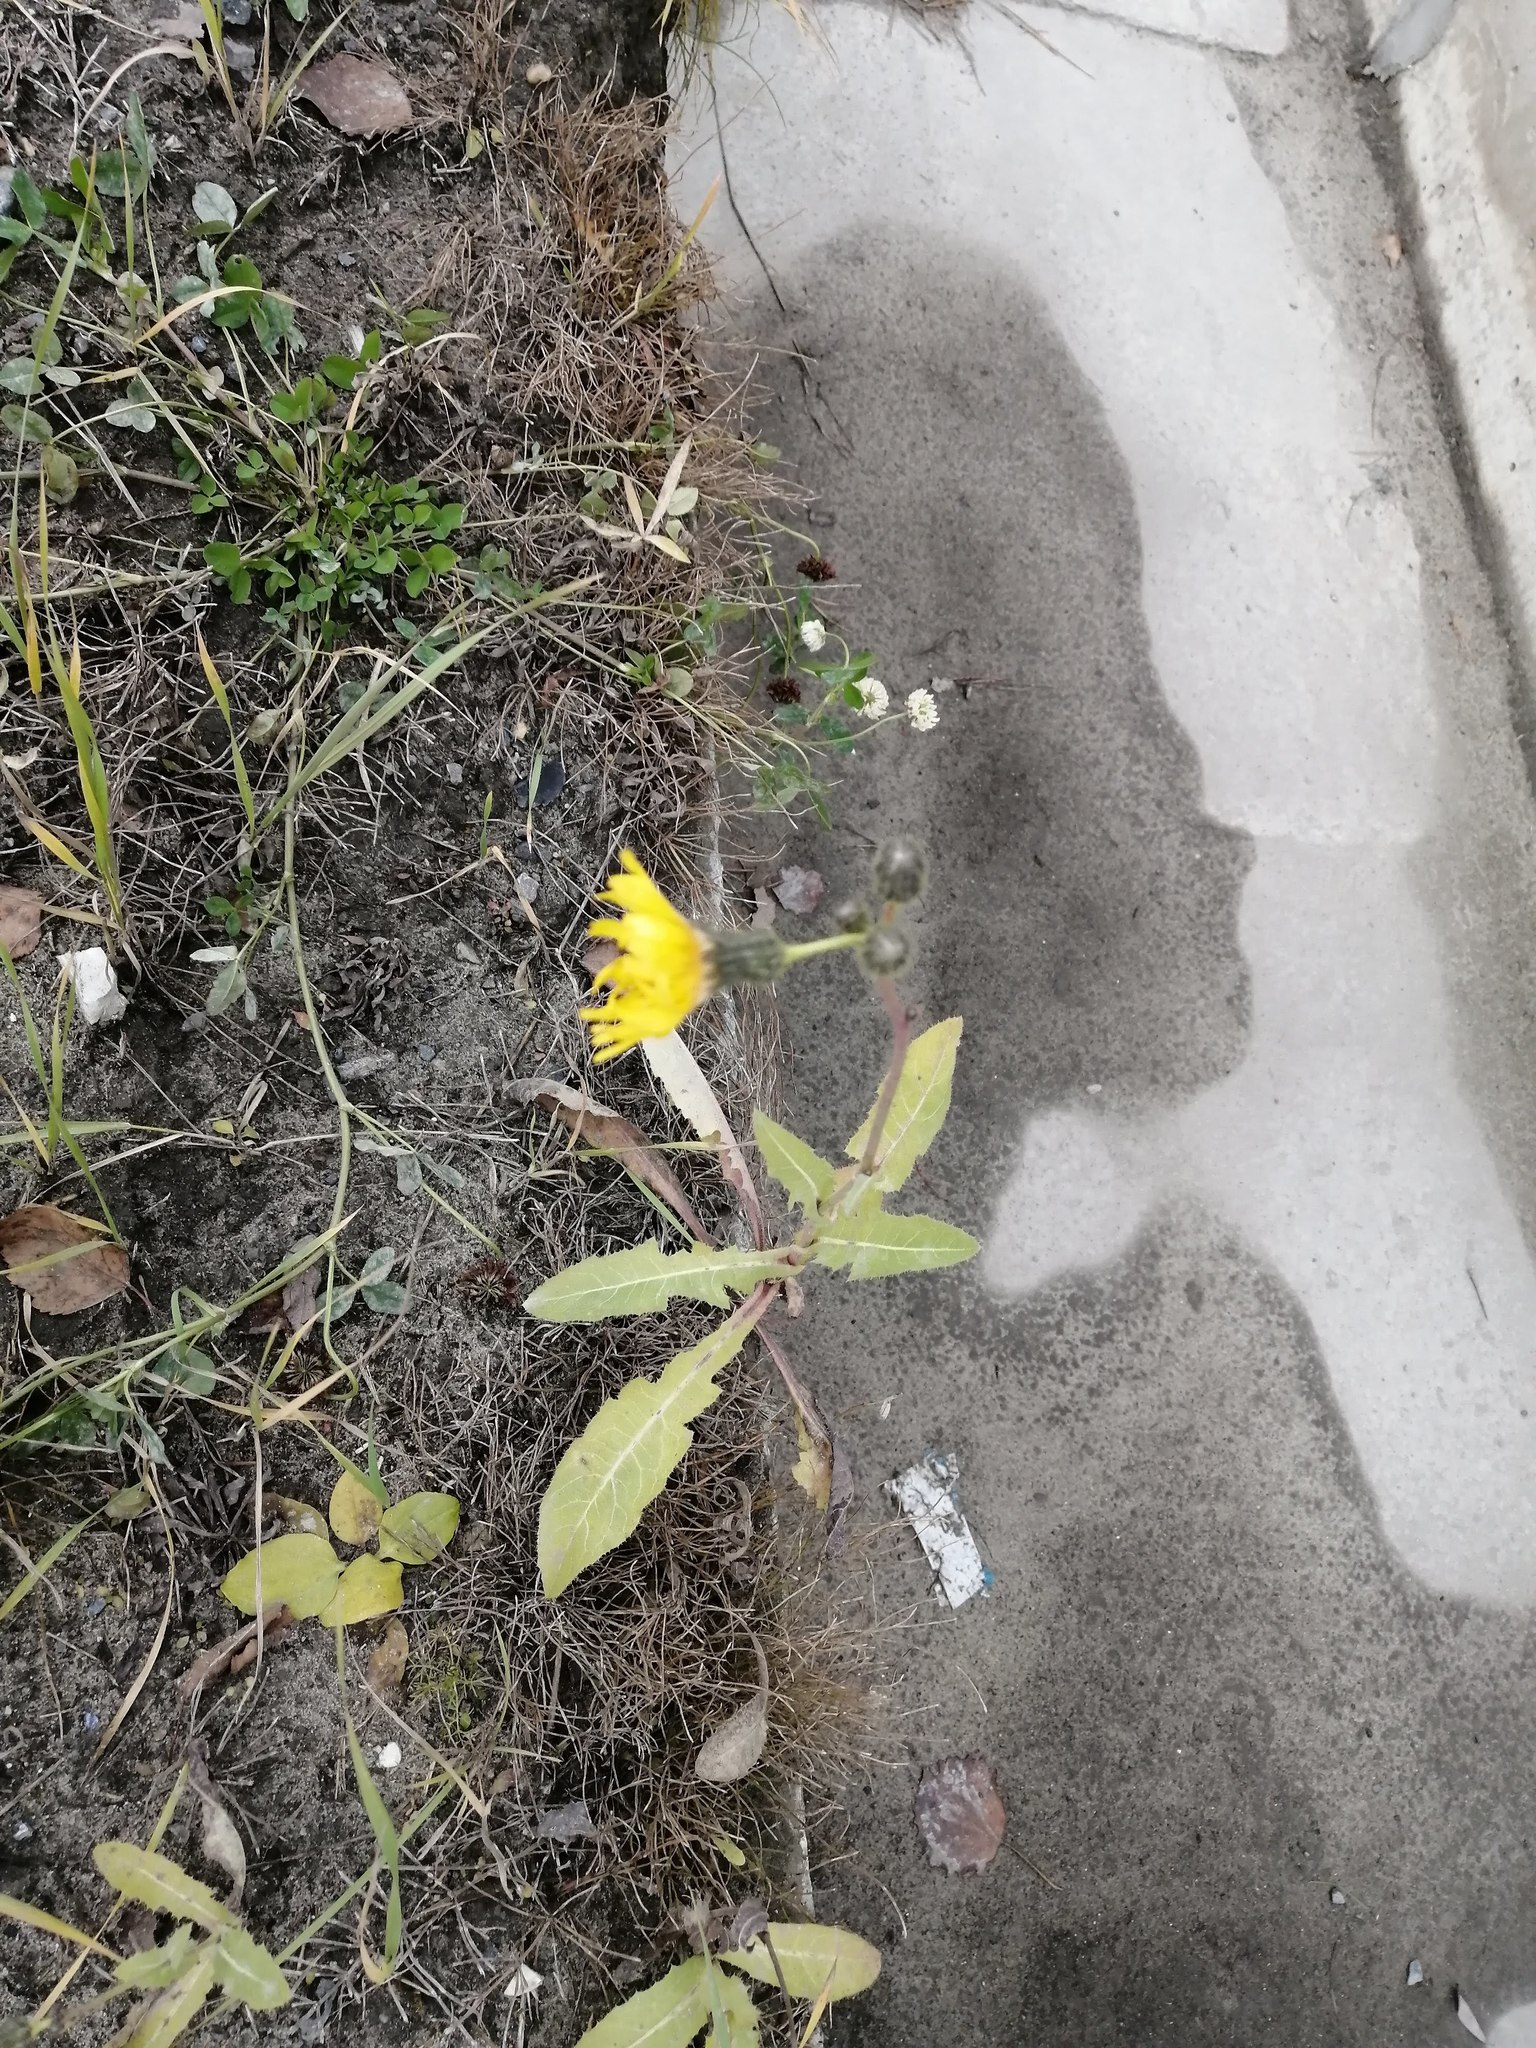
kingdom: Plantae
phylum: Tracheophyta
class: Magnoliopsida
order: Asterales
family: Asteraceae
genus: Sonchus
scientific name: Sonchus arvensis
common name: Perennial sow-thistle
